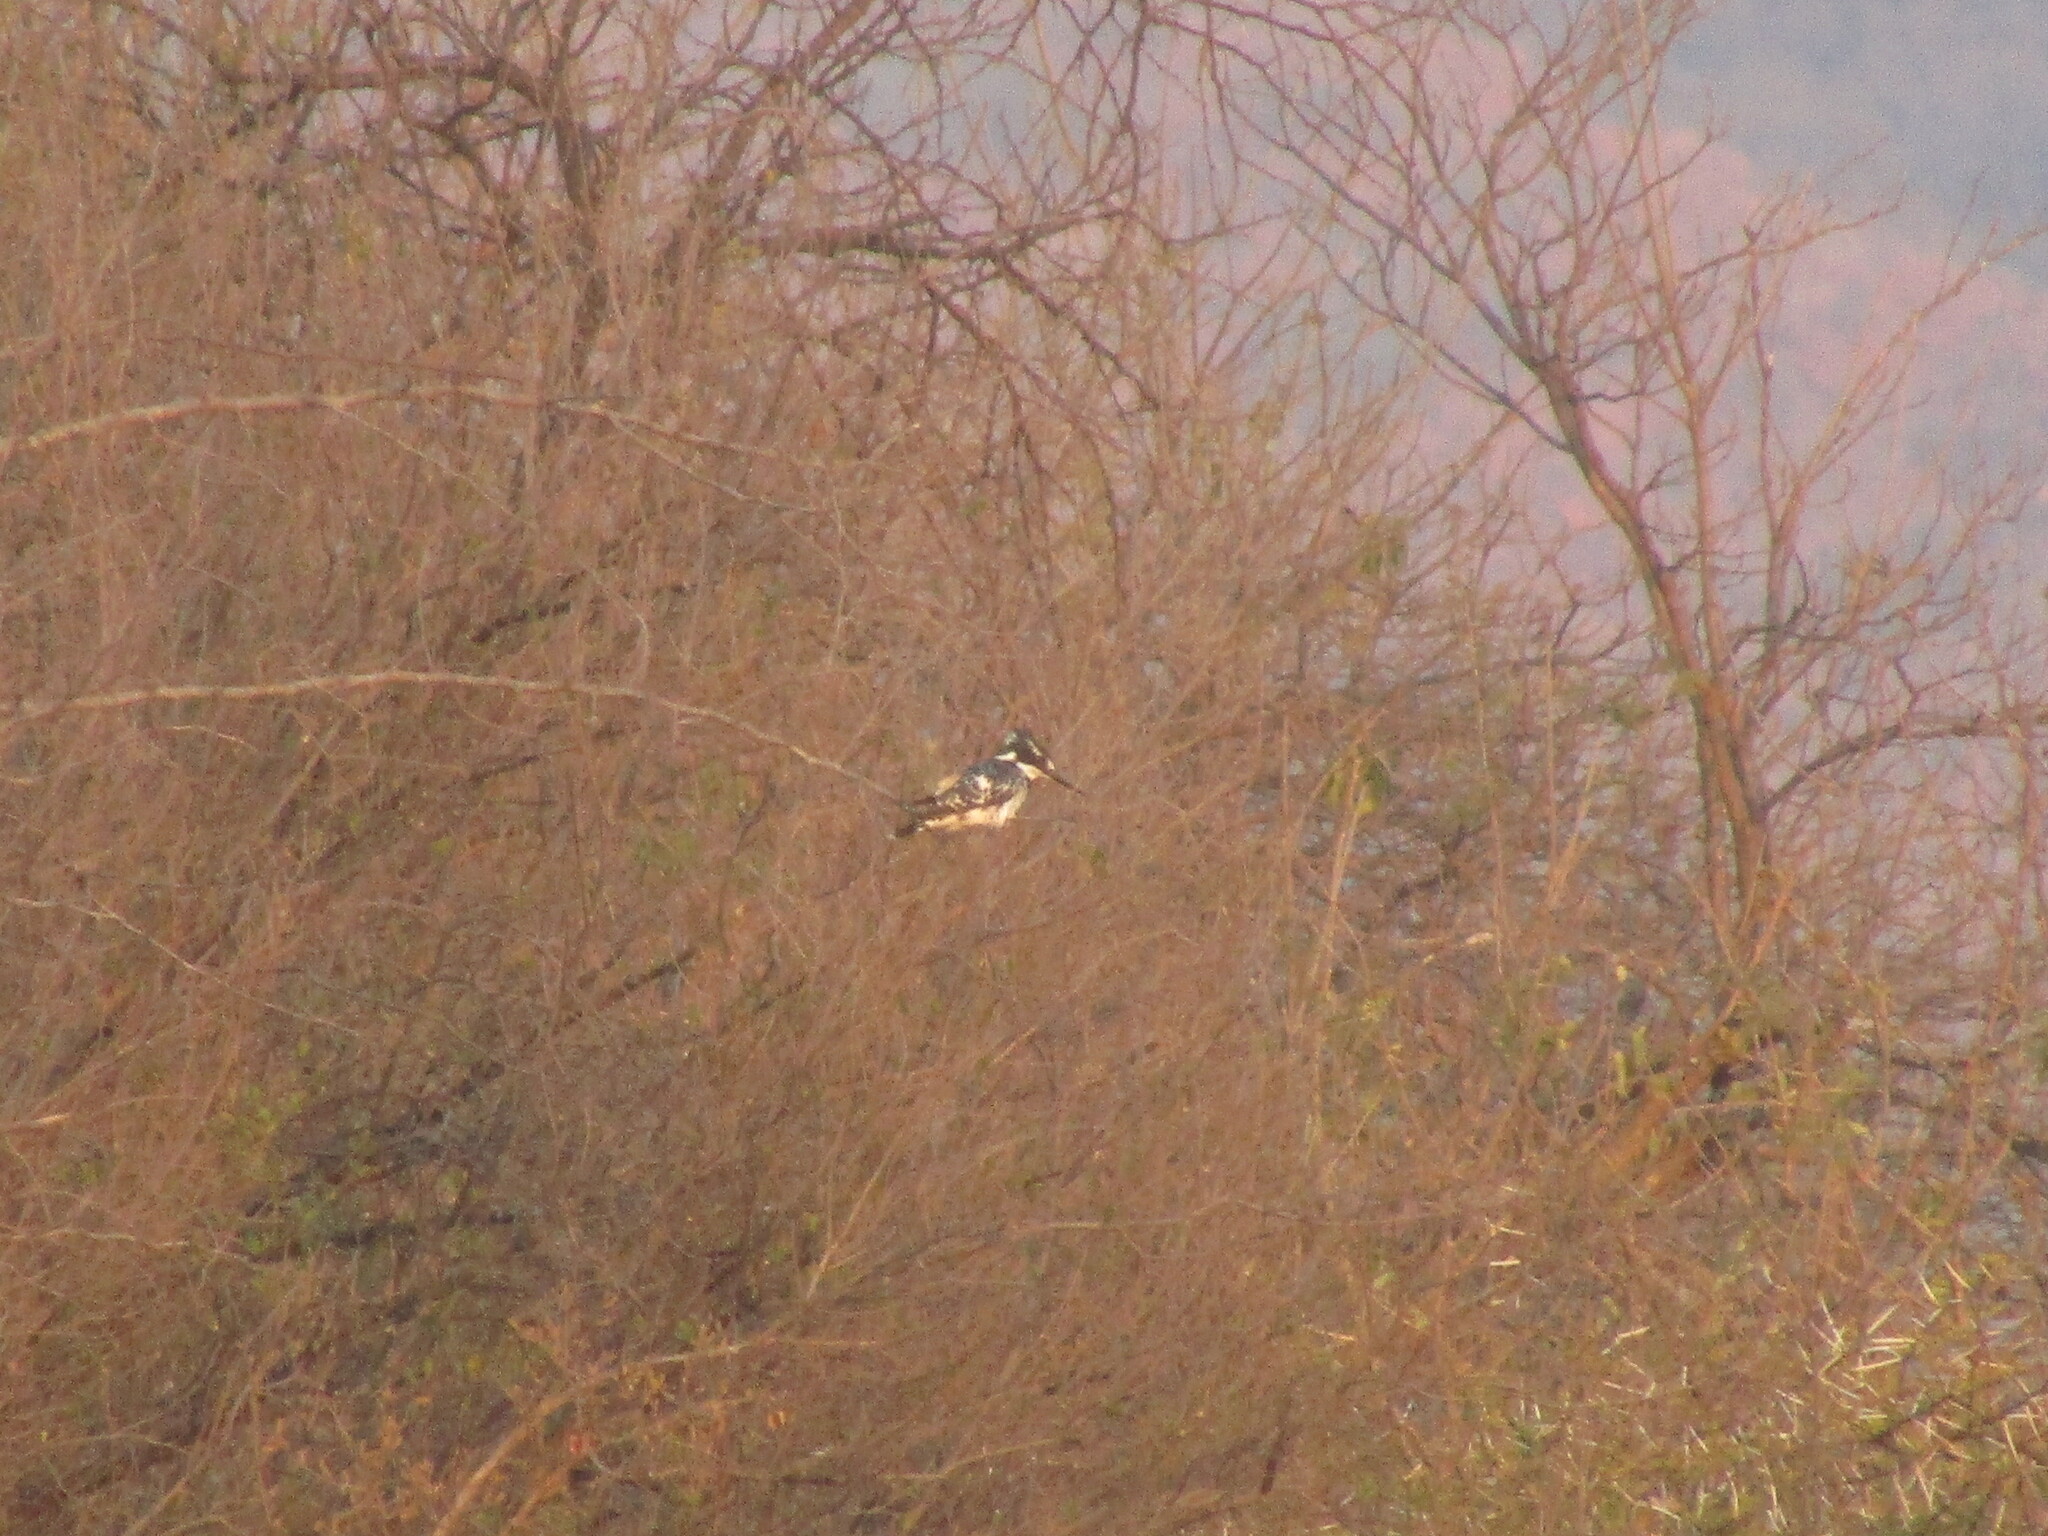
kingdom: Animalia
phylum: Chordata
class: Aves
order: Coraciiformes
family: Alcedinidae
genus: Ceryle
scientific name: Ceryle rudis
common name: Pied kingfisher
